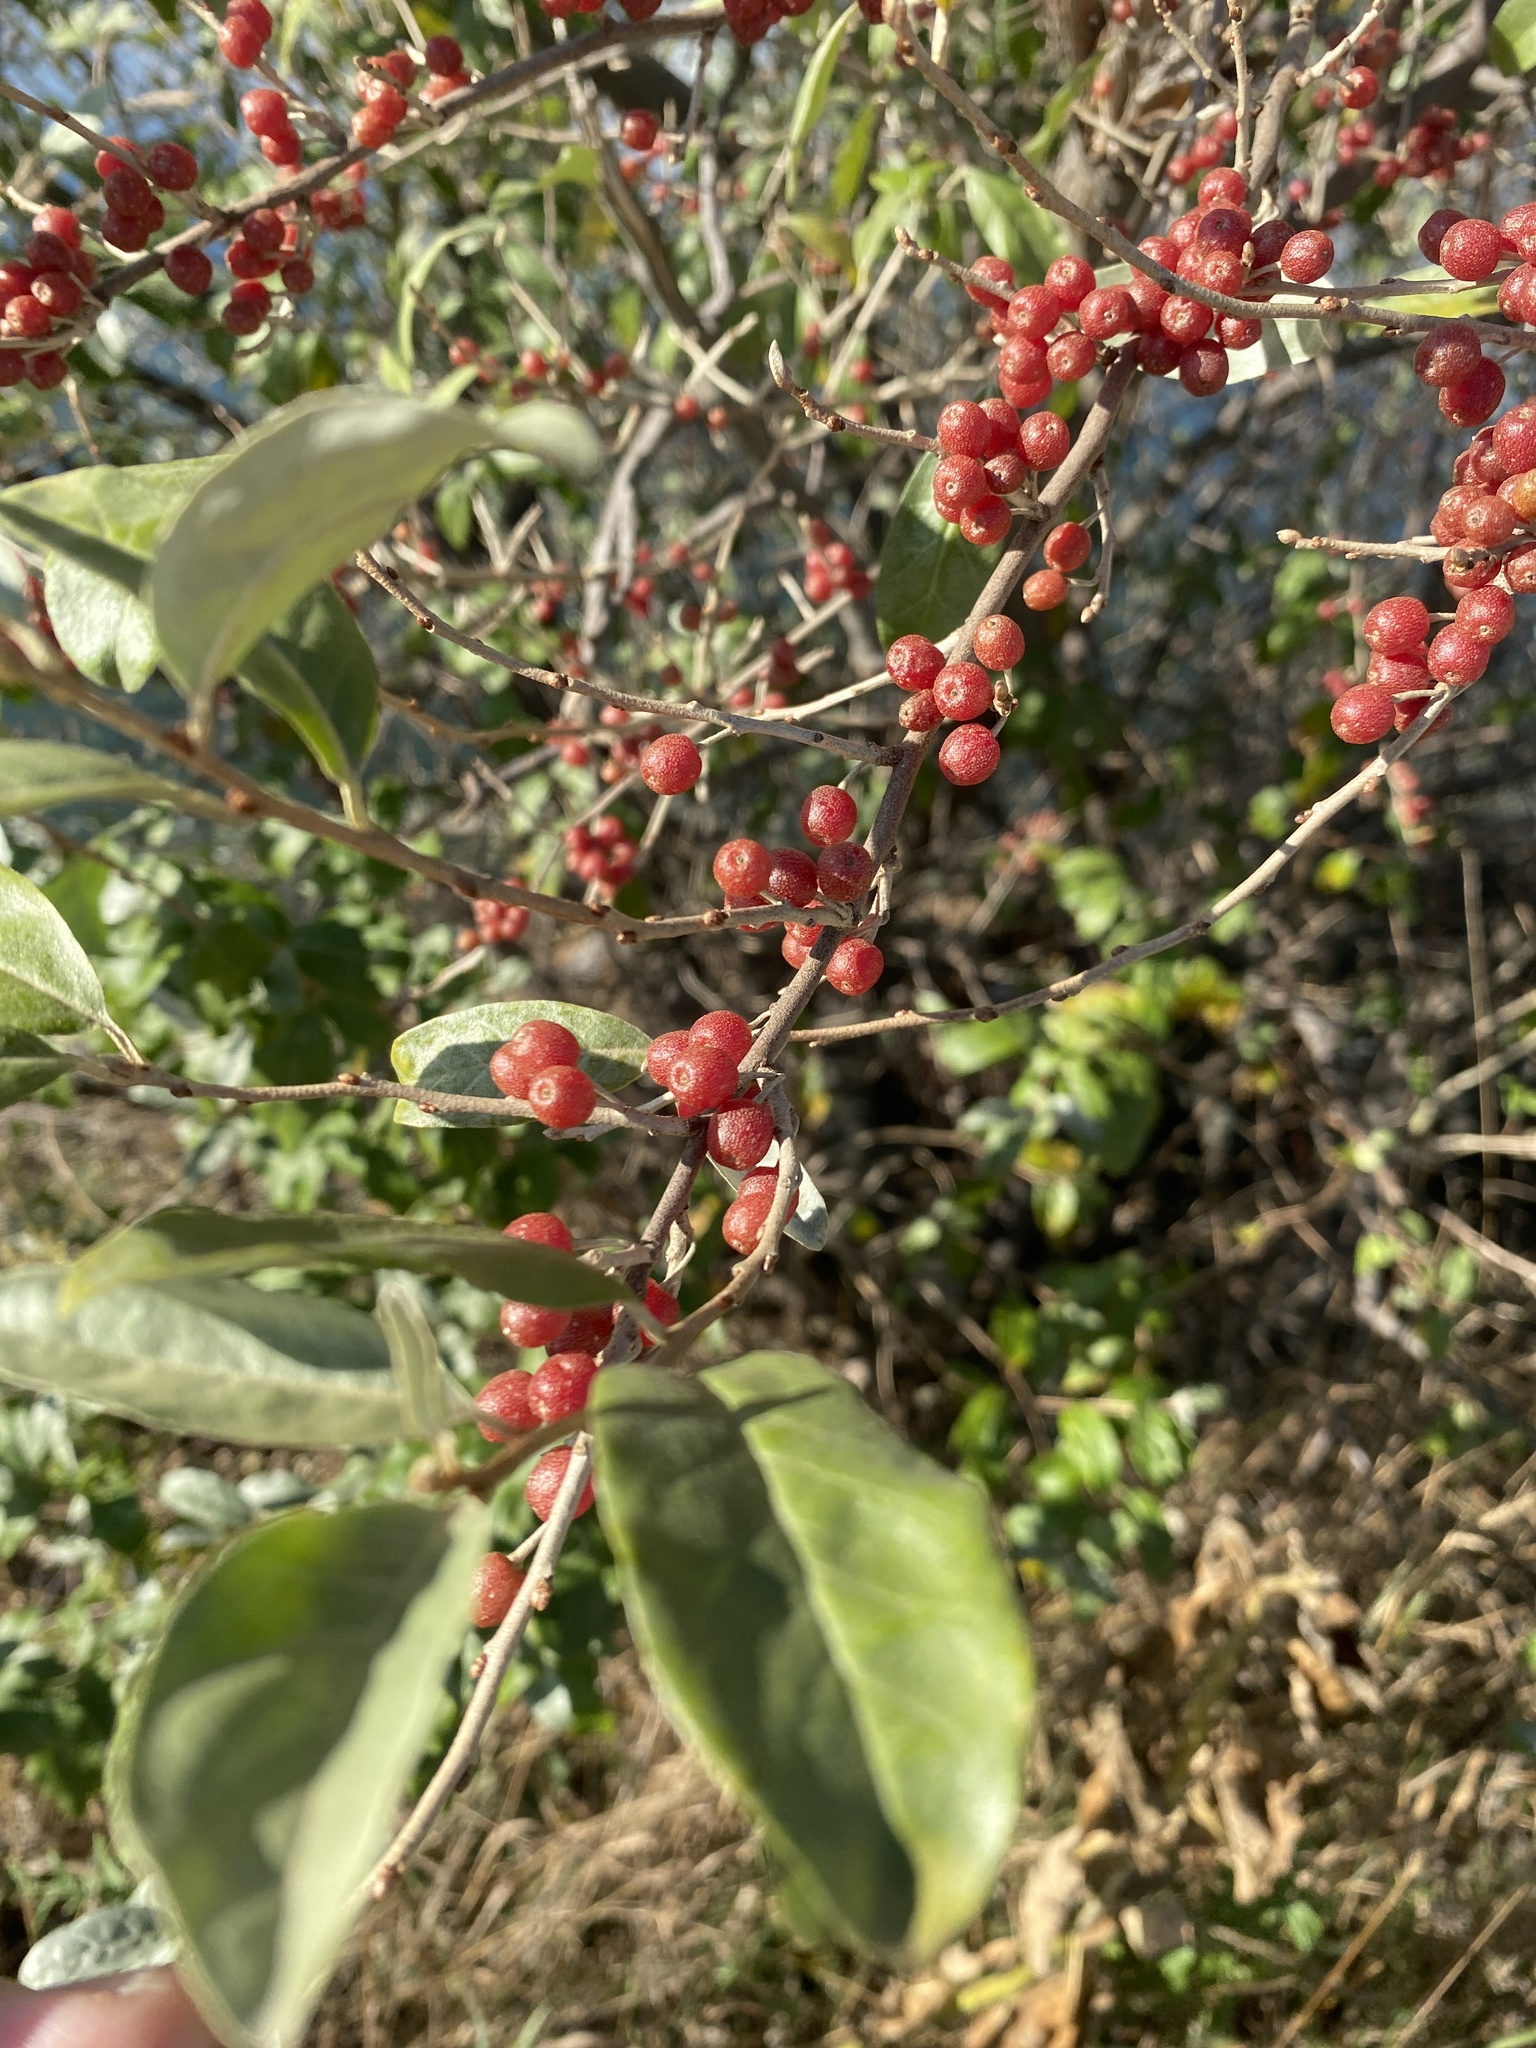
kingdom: Plantae
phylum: Tracheophyta
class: Magnoliopsida
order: Rosales
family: Elaeagnaceae
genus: Elaeagnus
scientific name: Elaeagnus umbellata
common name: Autumn olive
